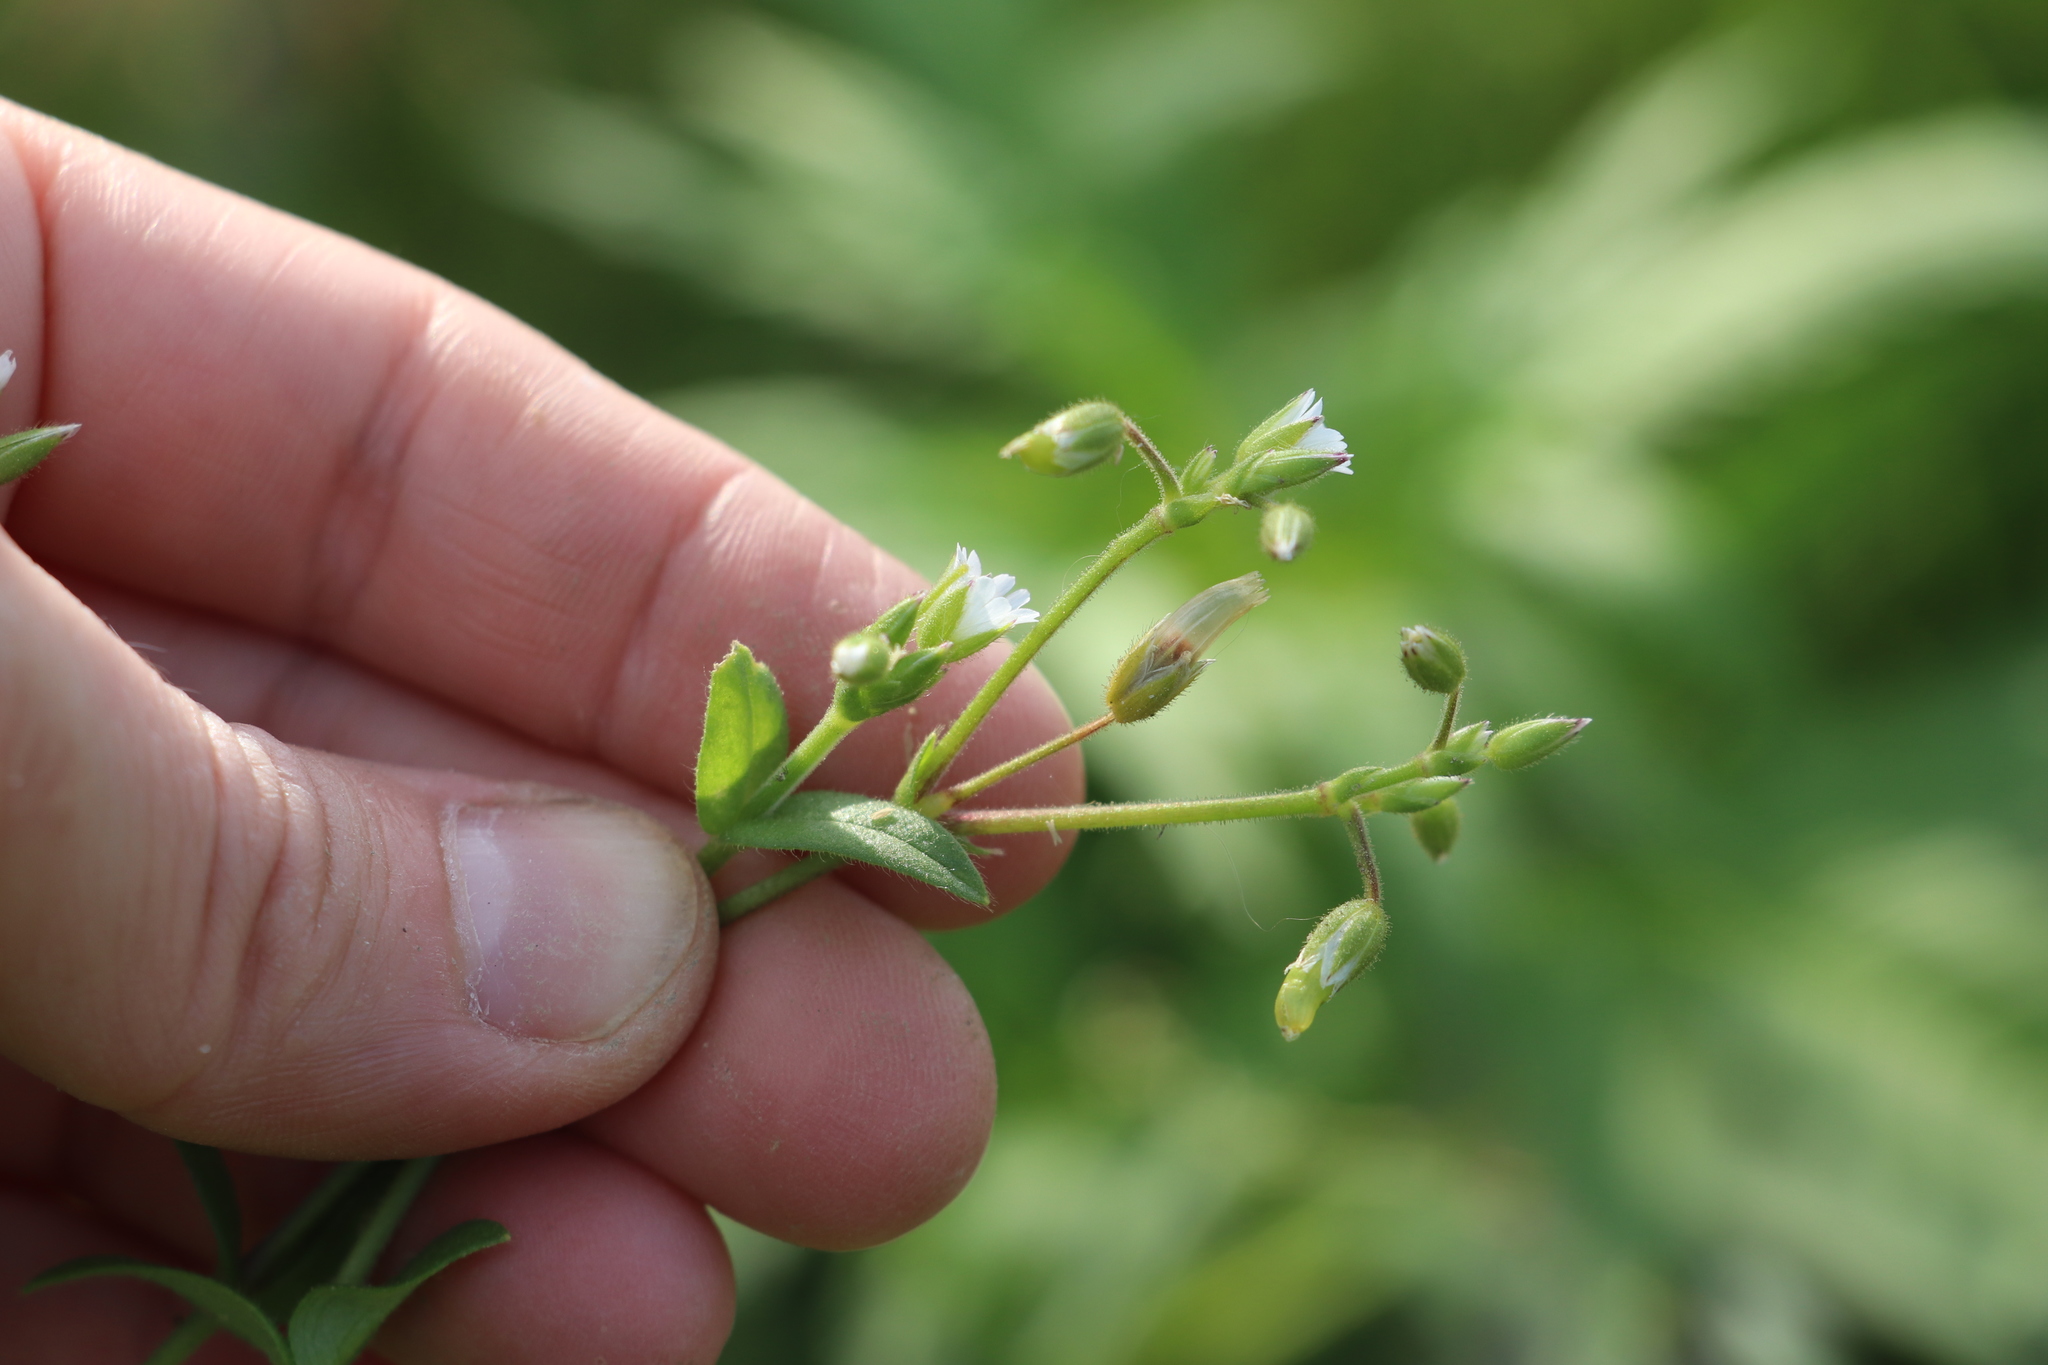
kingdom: Plantae
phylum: Tracheophyta
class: Magnoliopsida
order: Caryophyllales
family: Caryophyllaceae
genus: Cerastium
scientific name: Cerastium holosteoides
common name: Big chickweed
